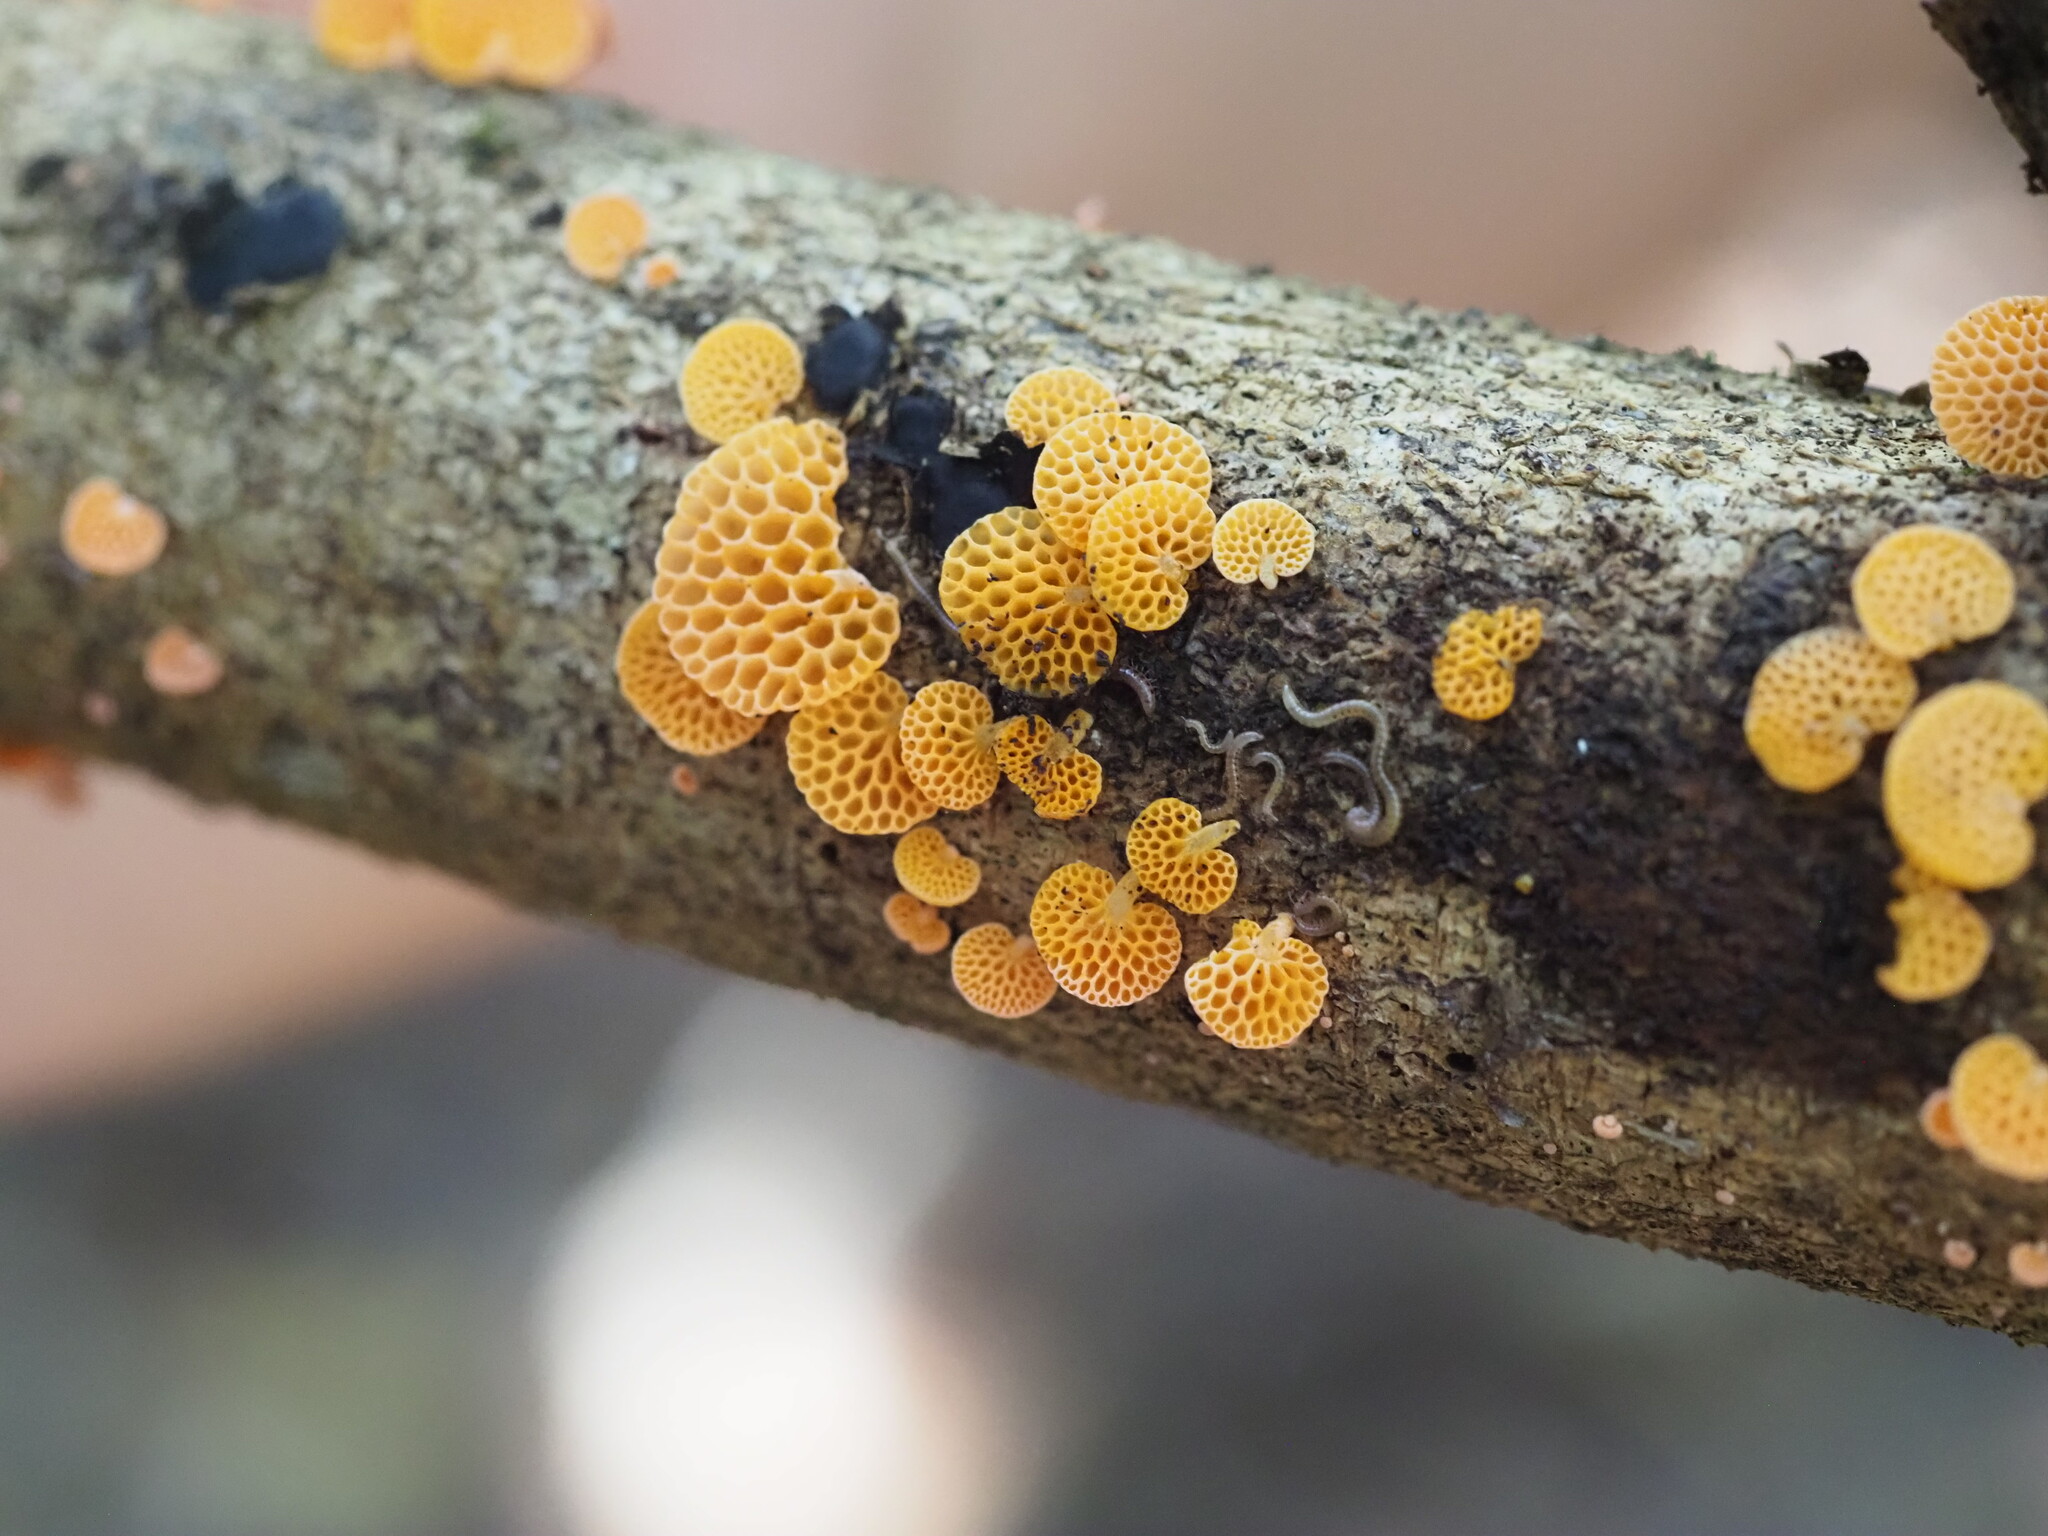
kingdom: Fungi
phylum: Basidiomycota
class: Agaricomycetes
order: Agaricales
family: Mycenaceae
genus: Favolaschia
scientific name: Favolaschia claudopus
